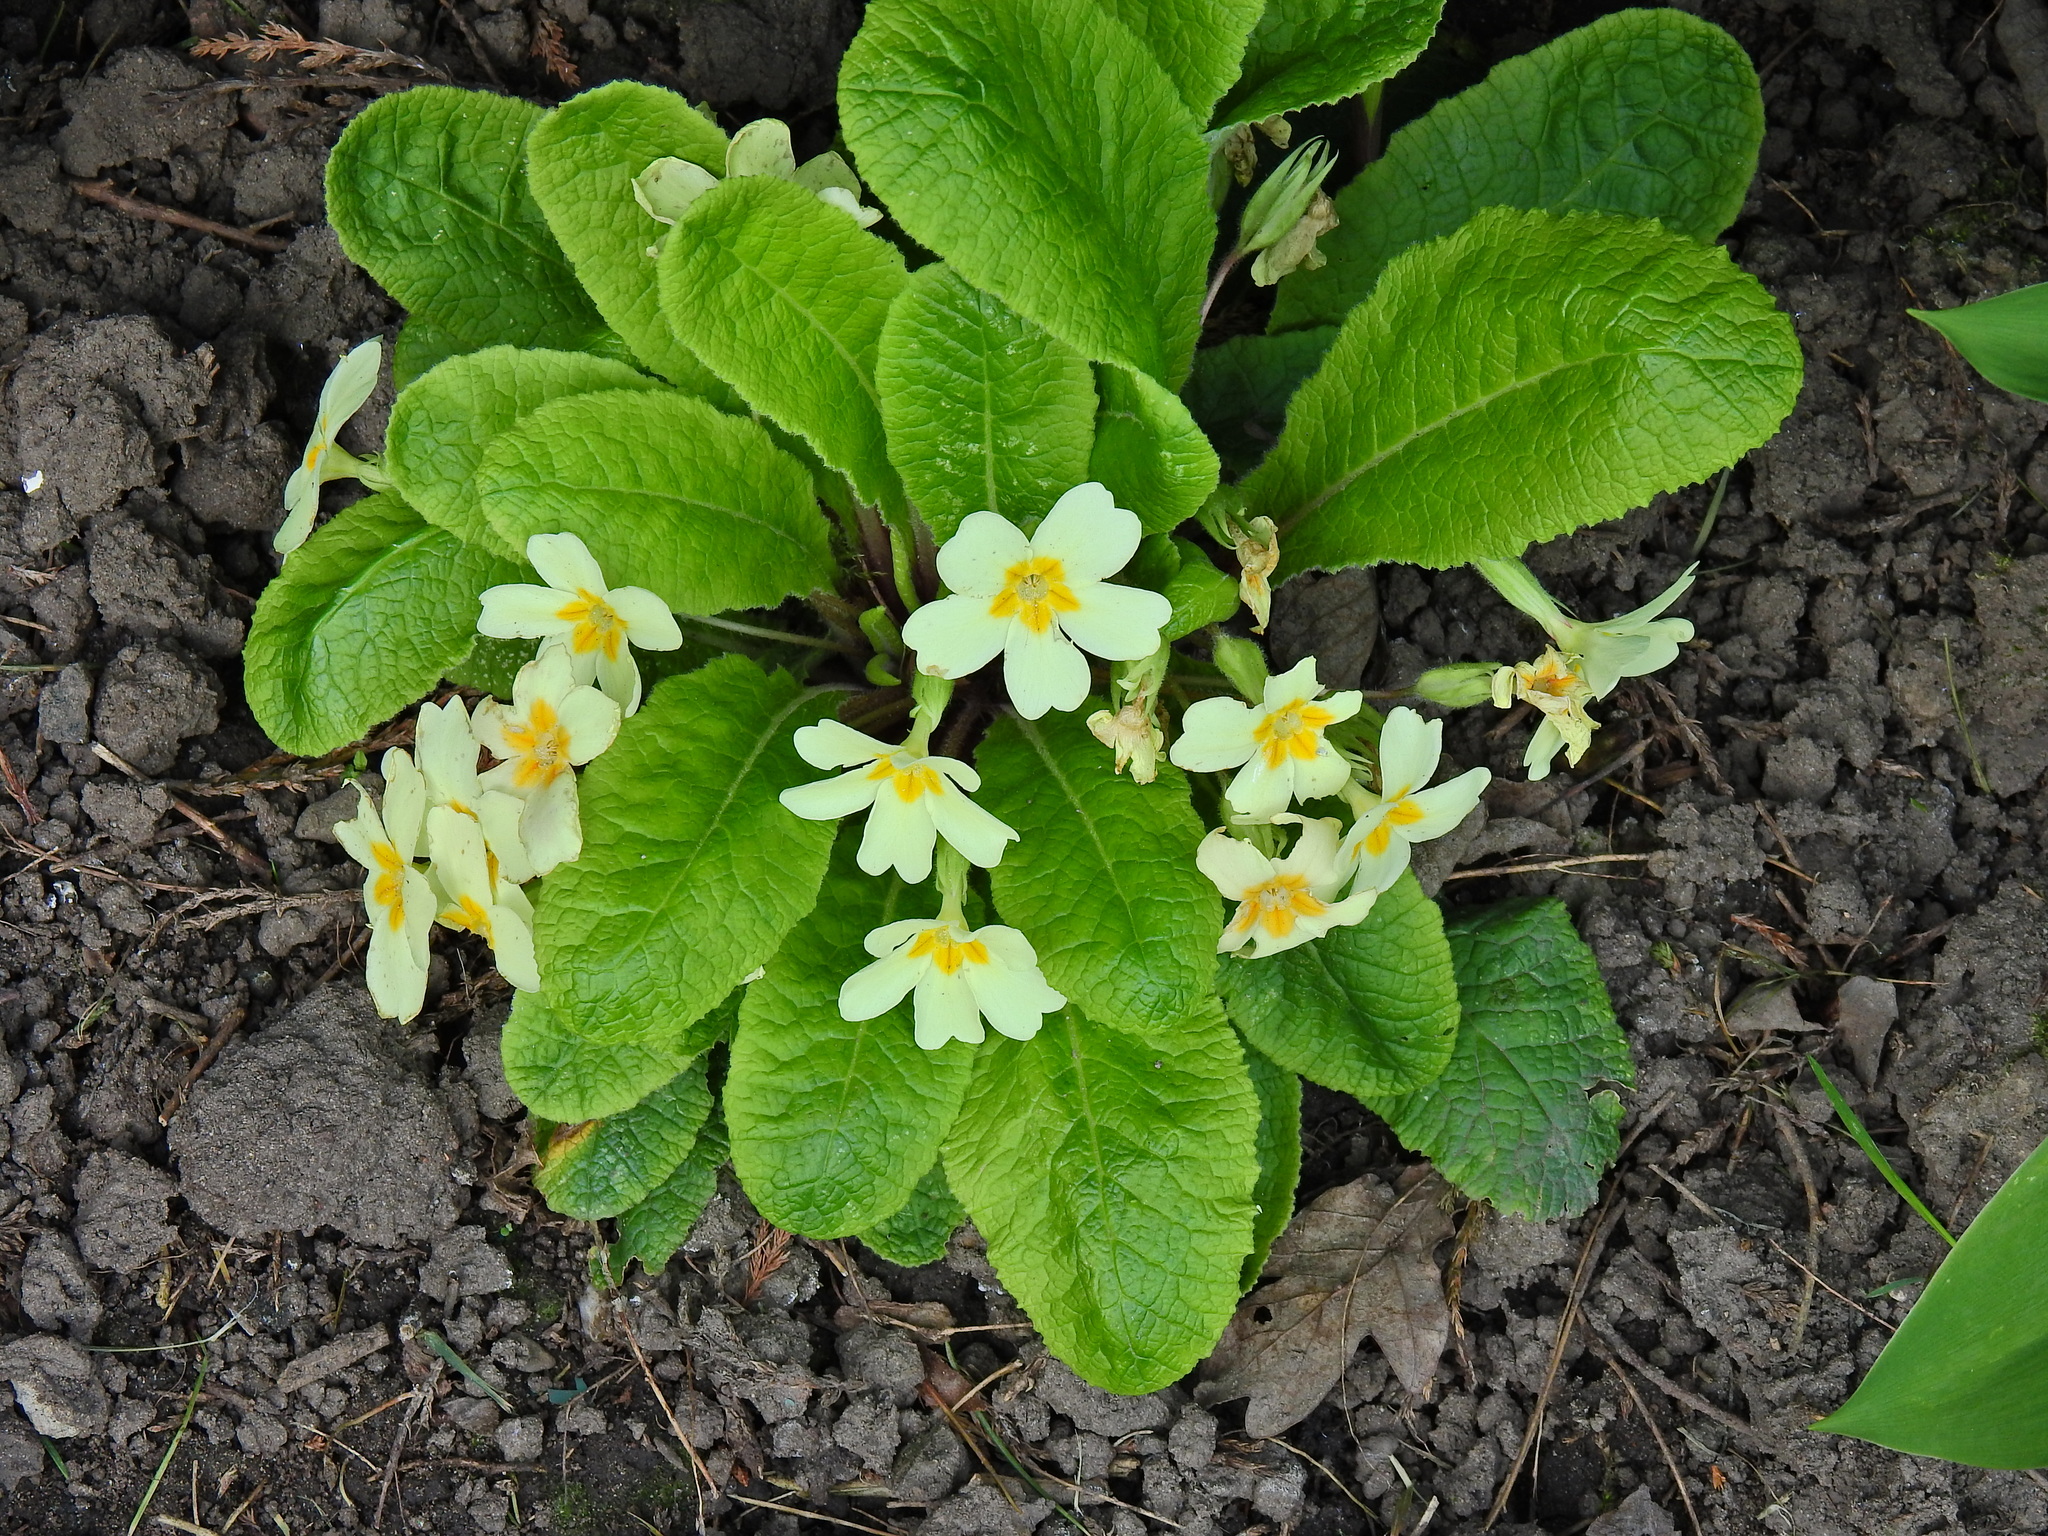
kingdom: Plantae
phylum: Tracheophyta
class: Magnoliopsida
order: Ericales
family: Primulaceae
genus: Primula
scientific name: Primula vulgaris
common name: Primrose
